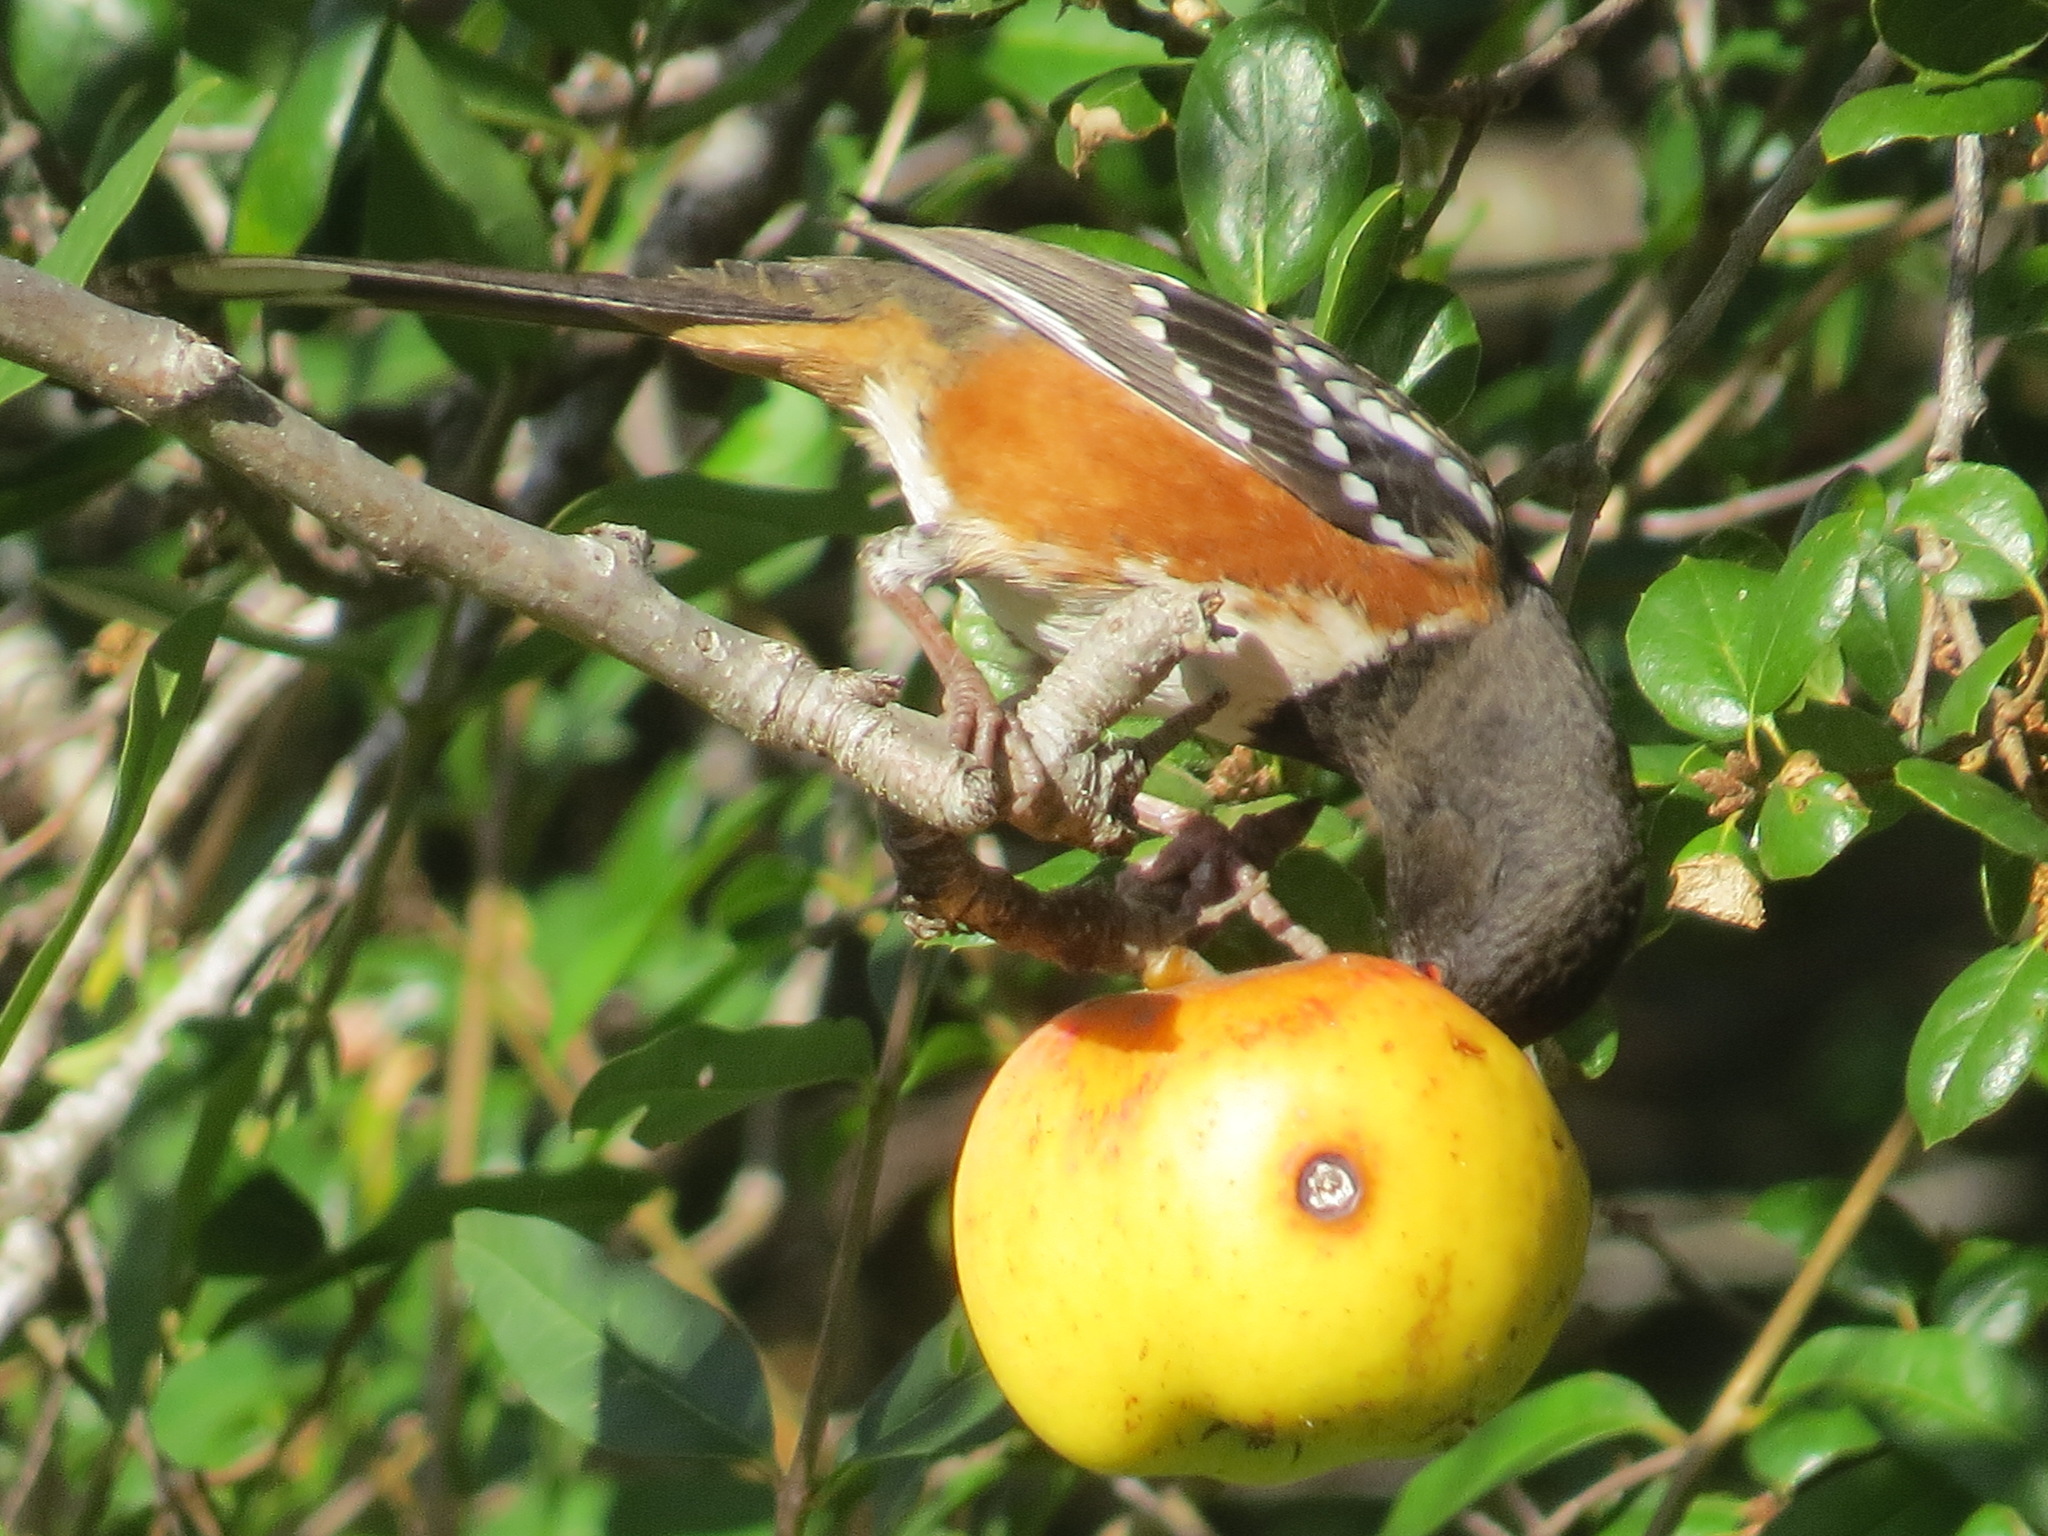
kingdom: Animalia
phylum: Chordata
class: Aves
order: Passeriformes
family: Passerellidae
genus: Pipilo
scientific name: Pipilo maculatus
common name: Spotted towhee
